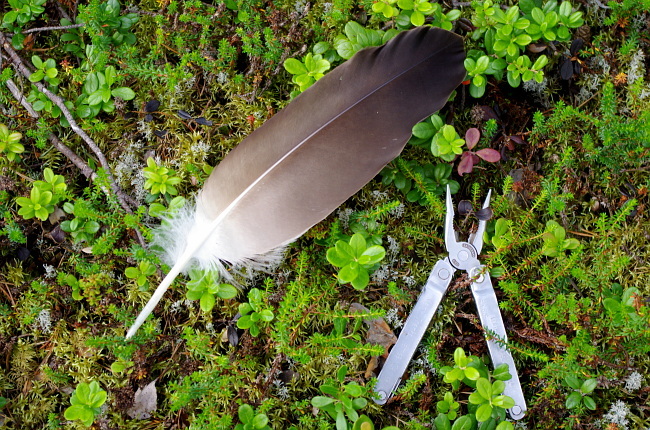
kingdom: Animalia
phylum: Chordata
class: Aves
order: Accipitriformes
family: Accipitridae
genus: Haliaeetus
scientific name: Haliaeetus albicilla
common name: White-tailed eagle
